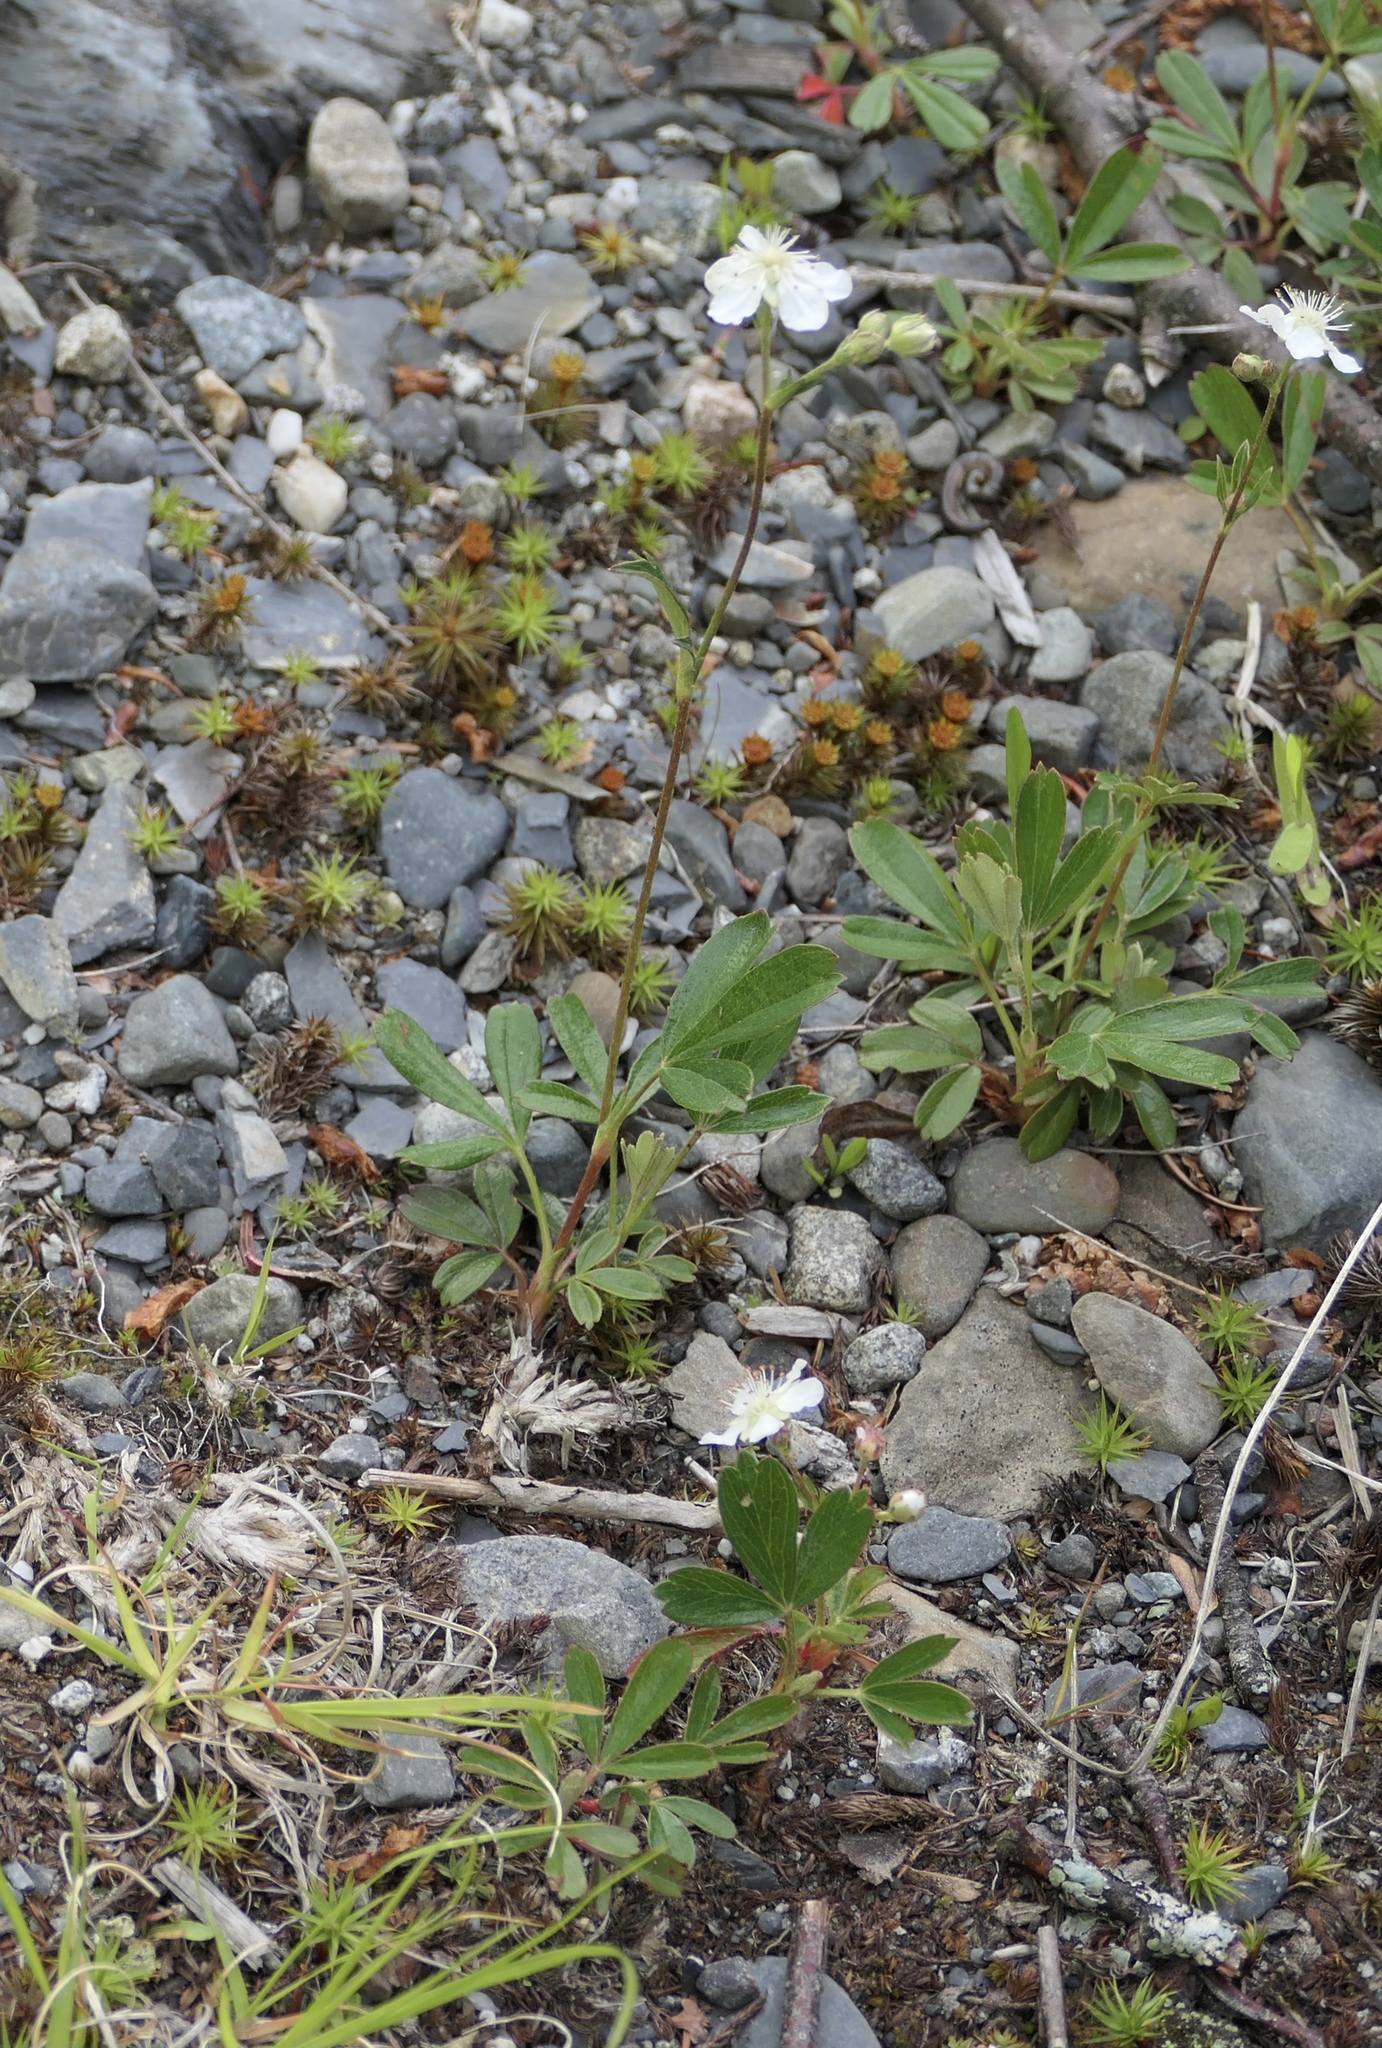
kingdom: Plantae
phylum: Tracheophyta
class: Magnoliopsida
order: Rosales
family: Rosaceae
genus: Sibbaldia
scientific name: Sibbaldia tridentata
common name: Three-toothed cinquefoil
